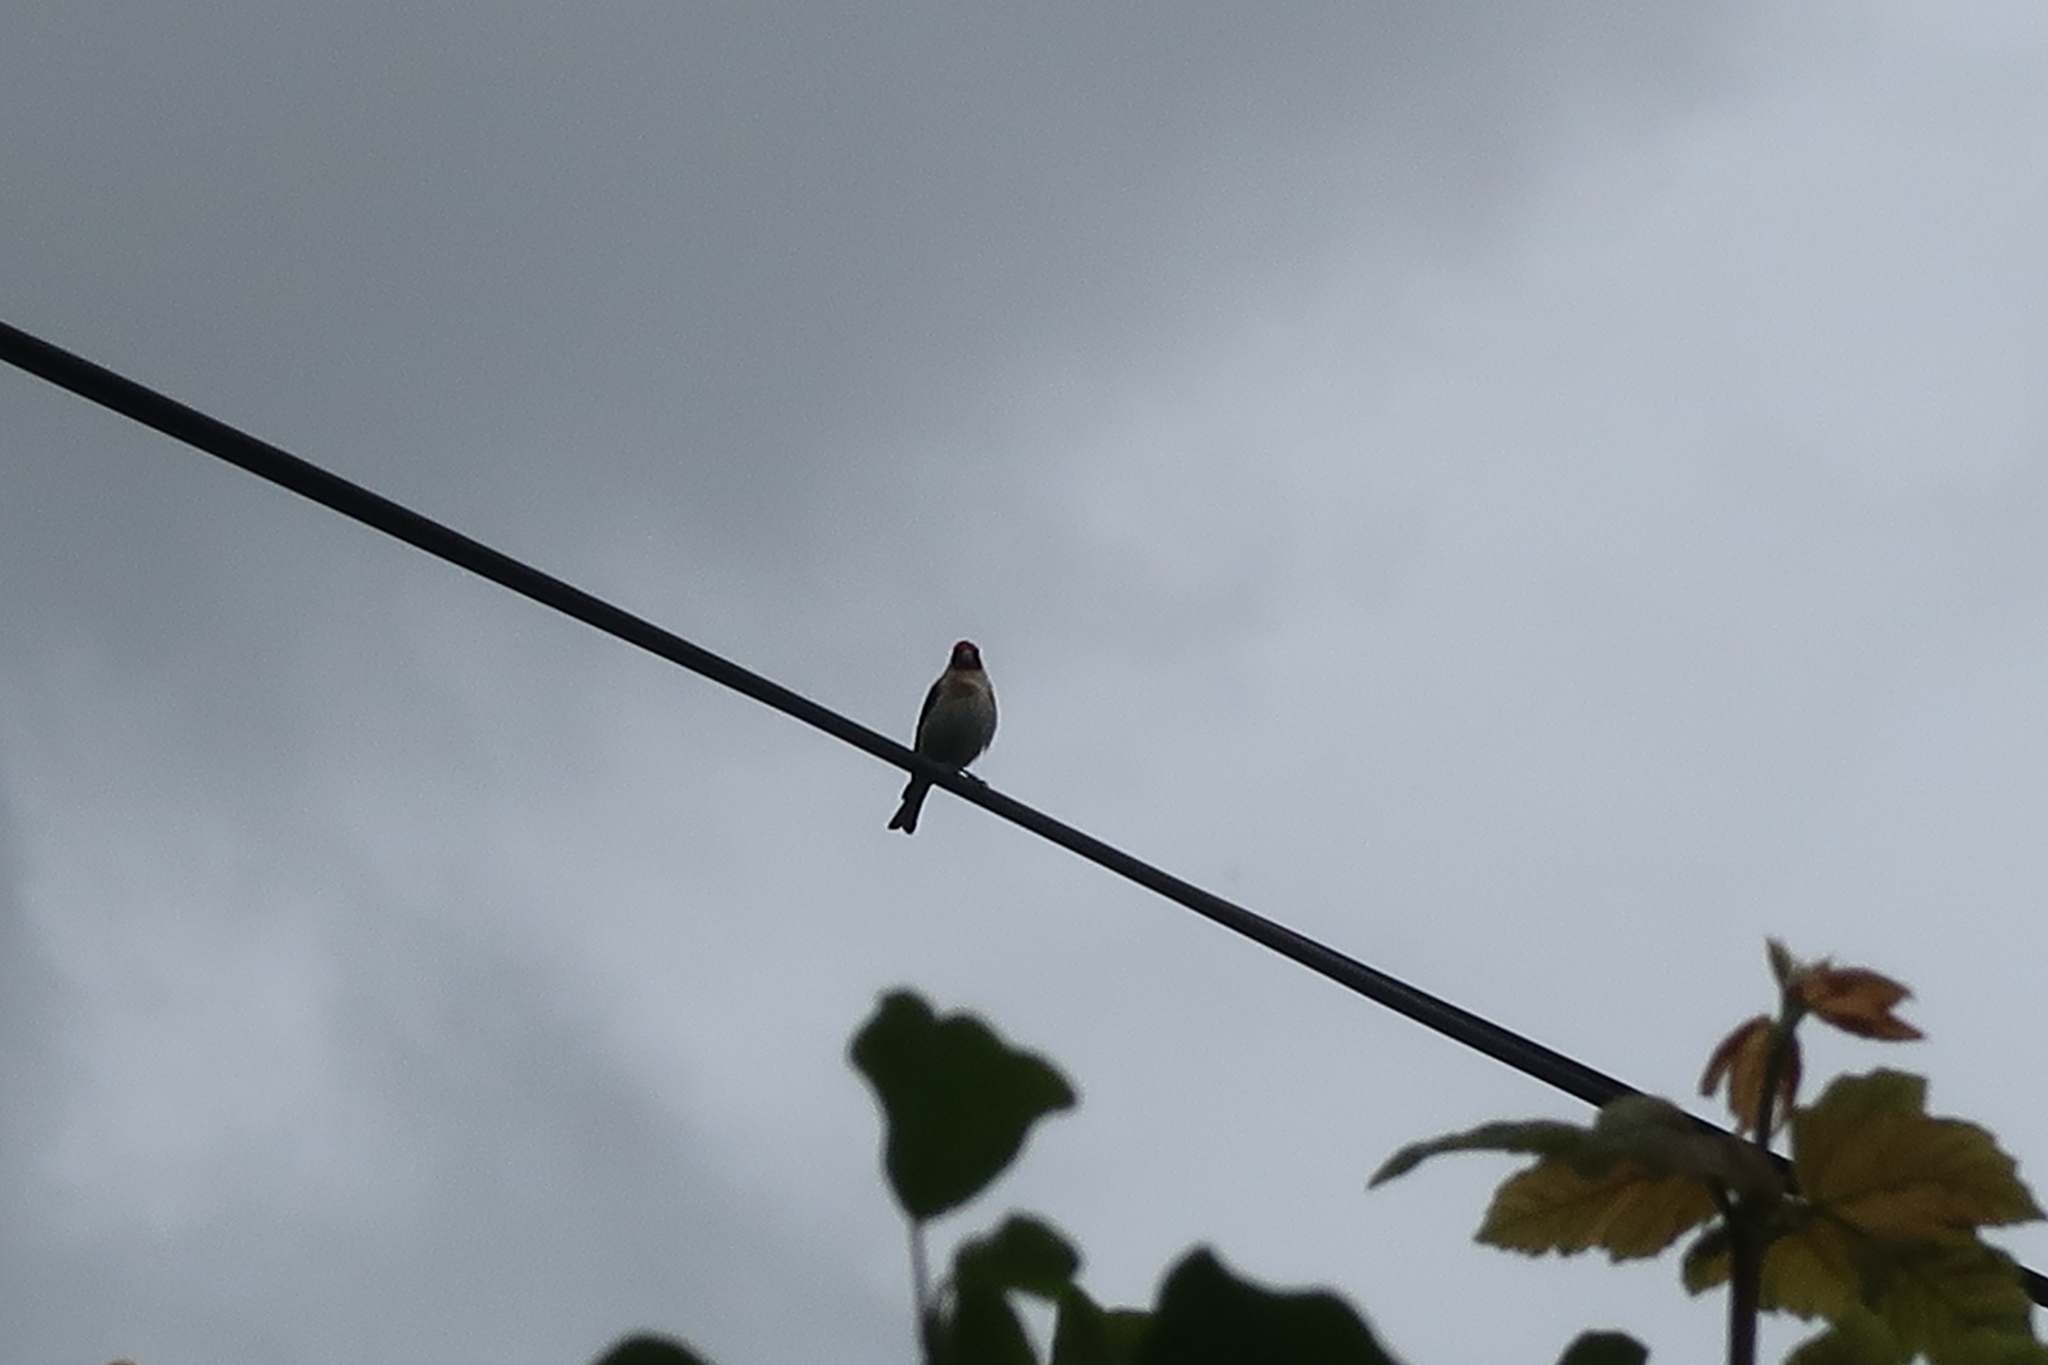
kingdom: Animalia
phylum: Chordata
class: Aves
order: Passeriformes
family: Fringillidae
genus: Carduelis
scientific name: Carduelis carduelis
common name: European goldfinch
